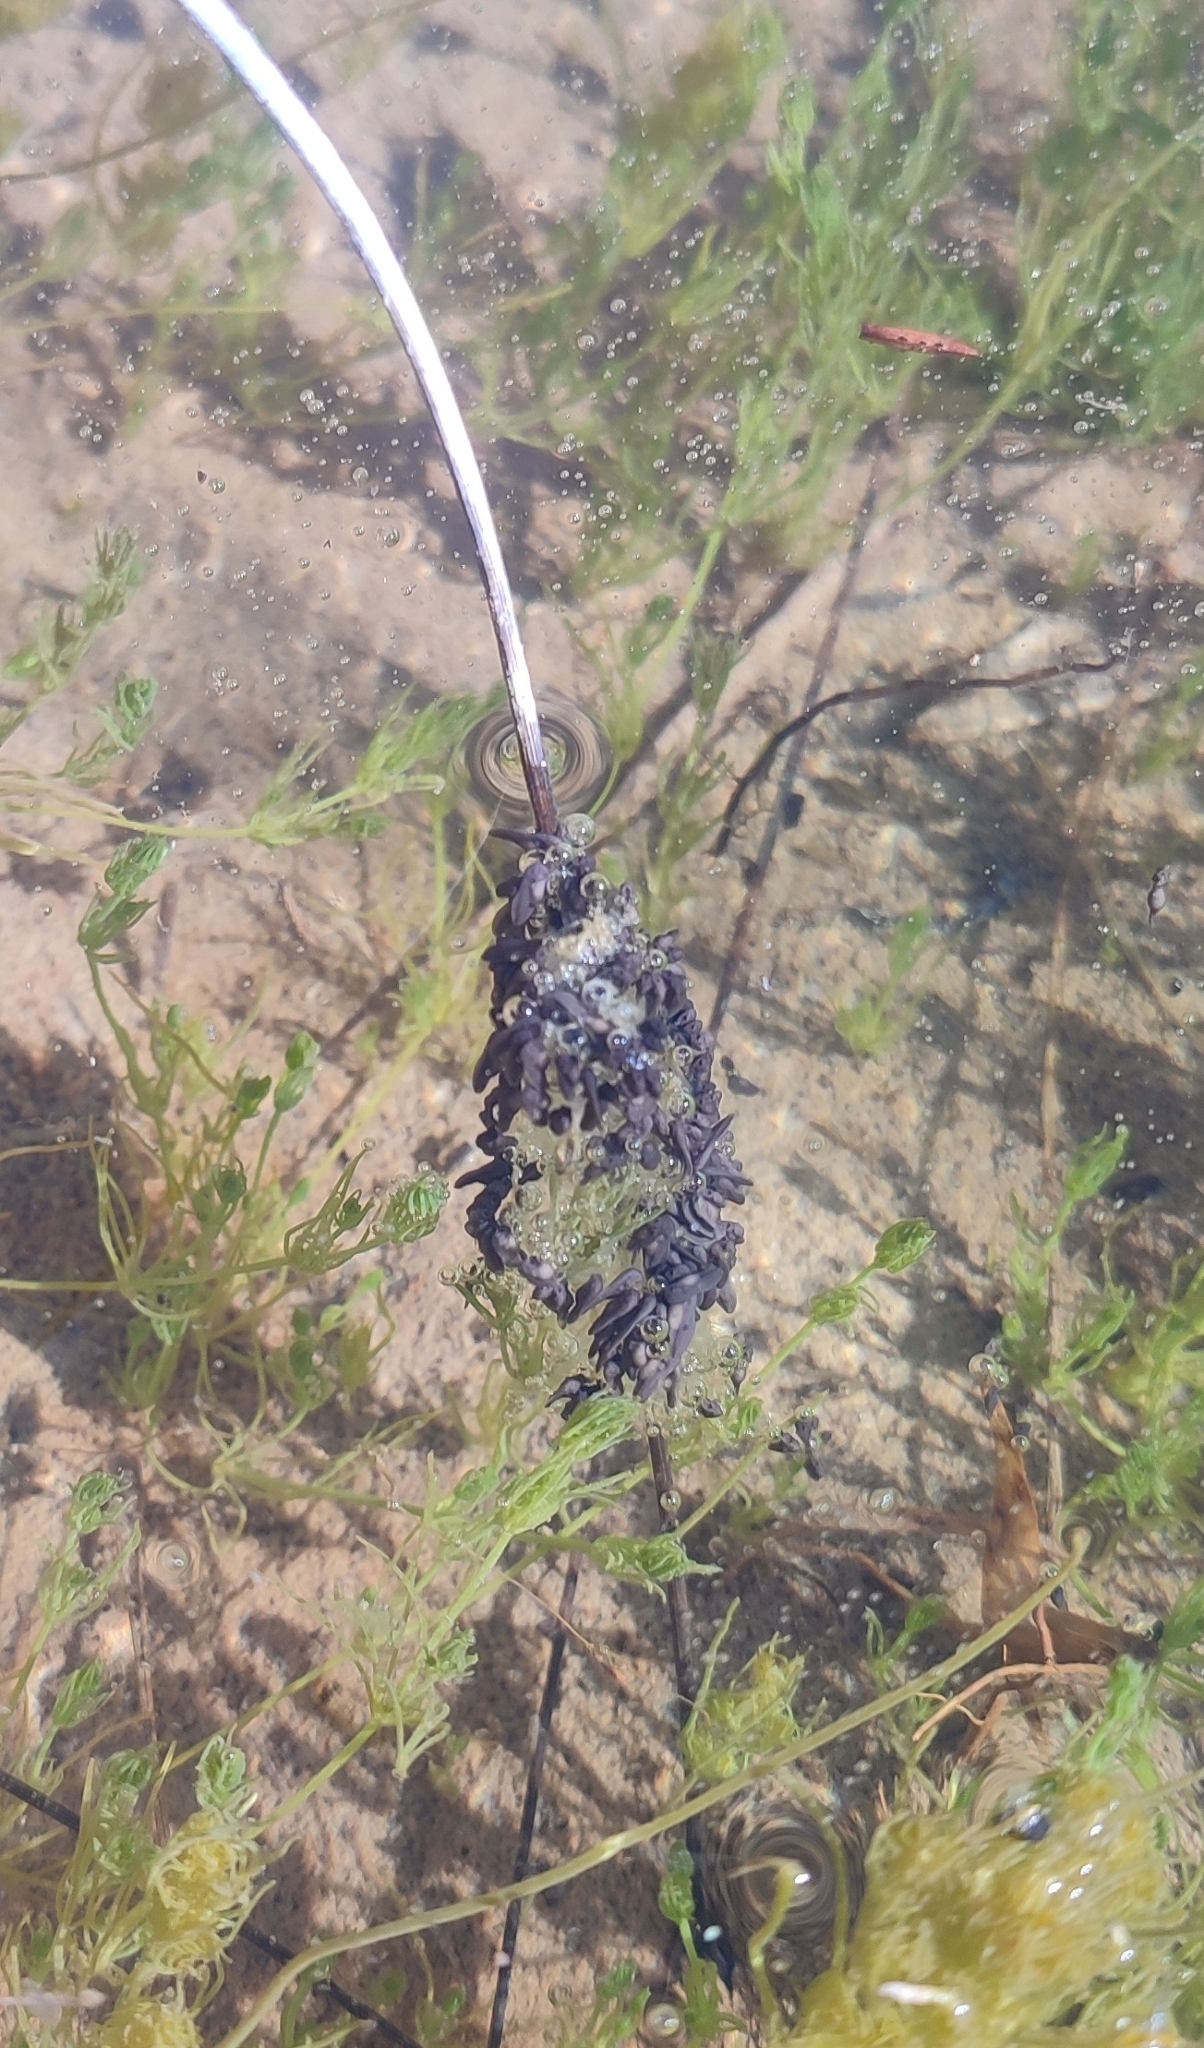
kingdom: Animalia
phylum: Chordata
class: Amphibia
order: Anura
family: Pelodytidae
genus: Pelodytes
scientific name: Pelodytes punctatus
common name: Parsley frog
